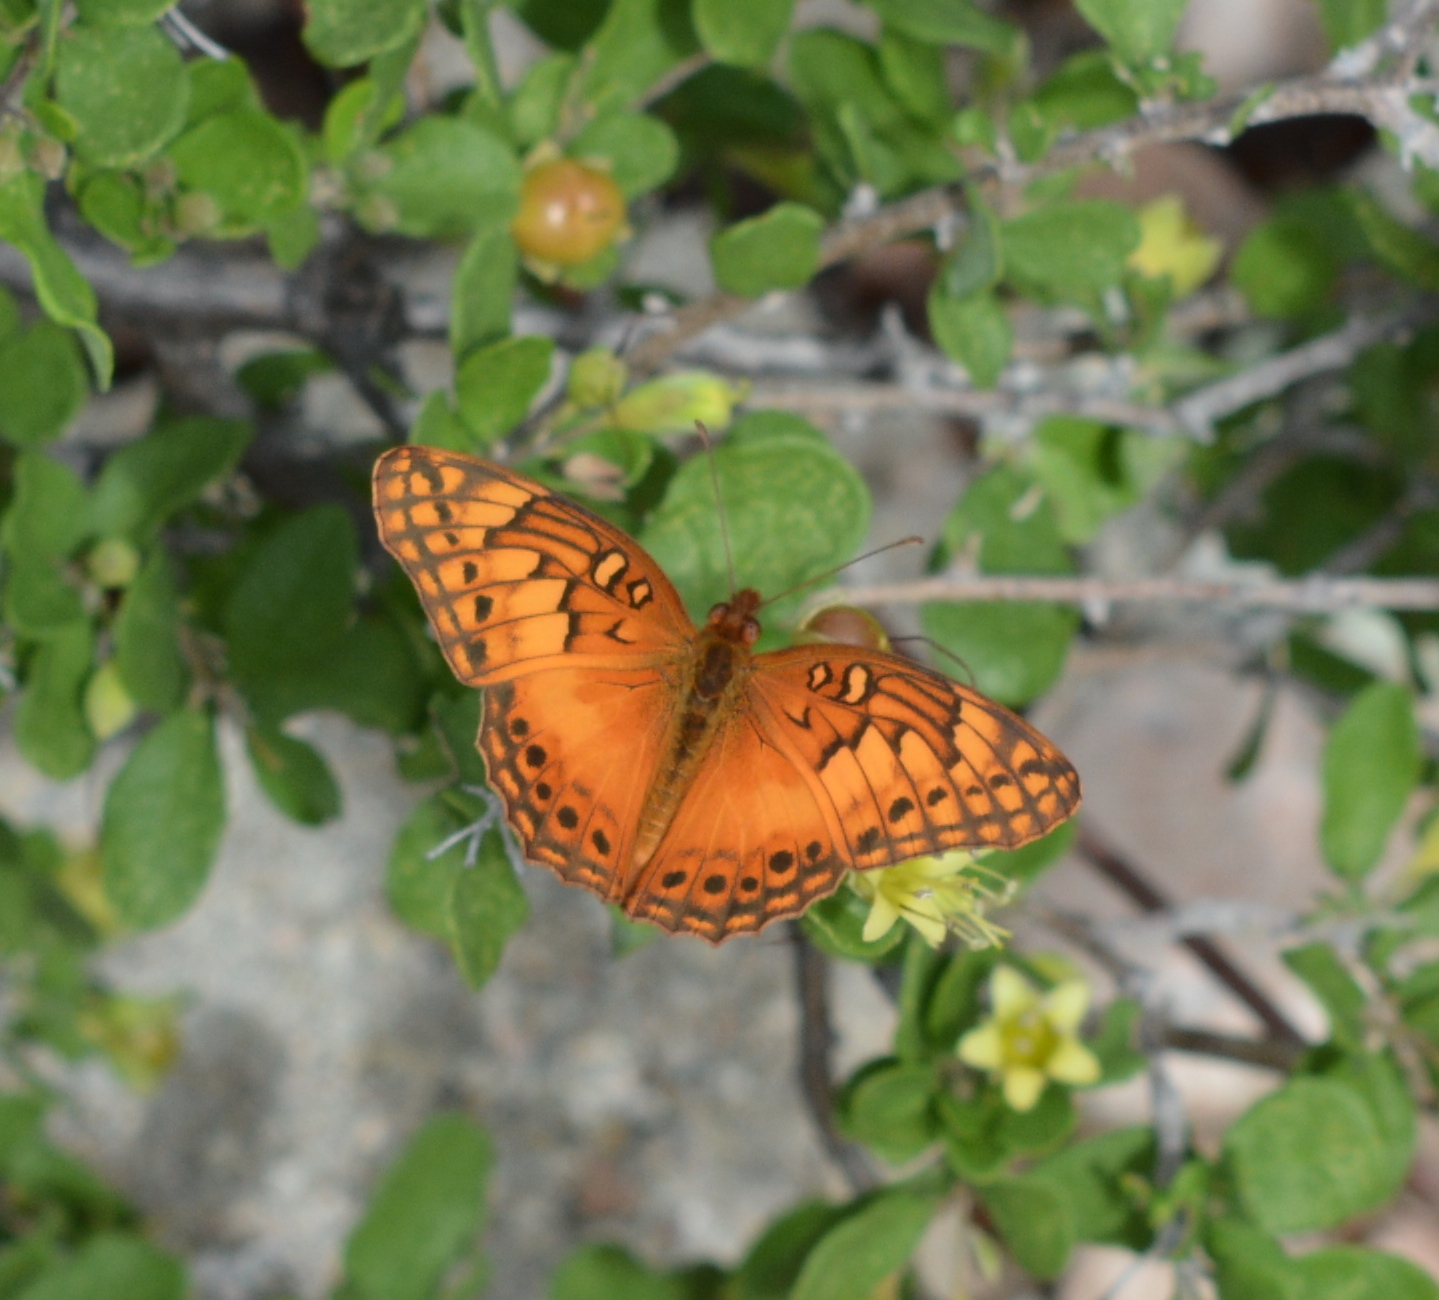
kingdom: Animalia
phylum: Arthropoda
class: Insecta
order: Lepidoptera
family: Nymphalidae
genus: Euptoieta
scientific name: Euptoieta hegesia
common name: Mexican fritillary
